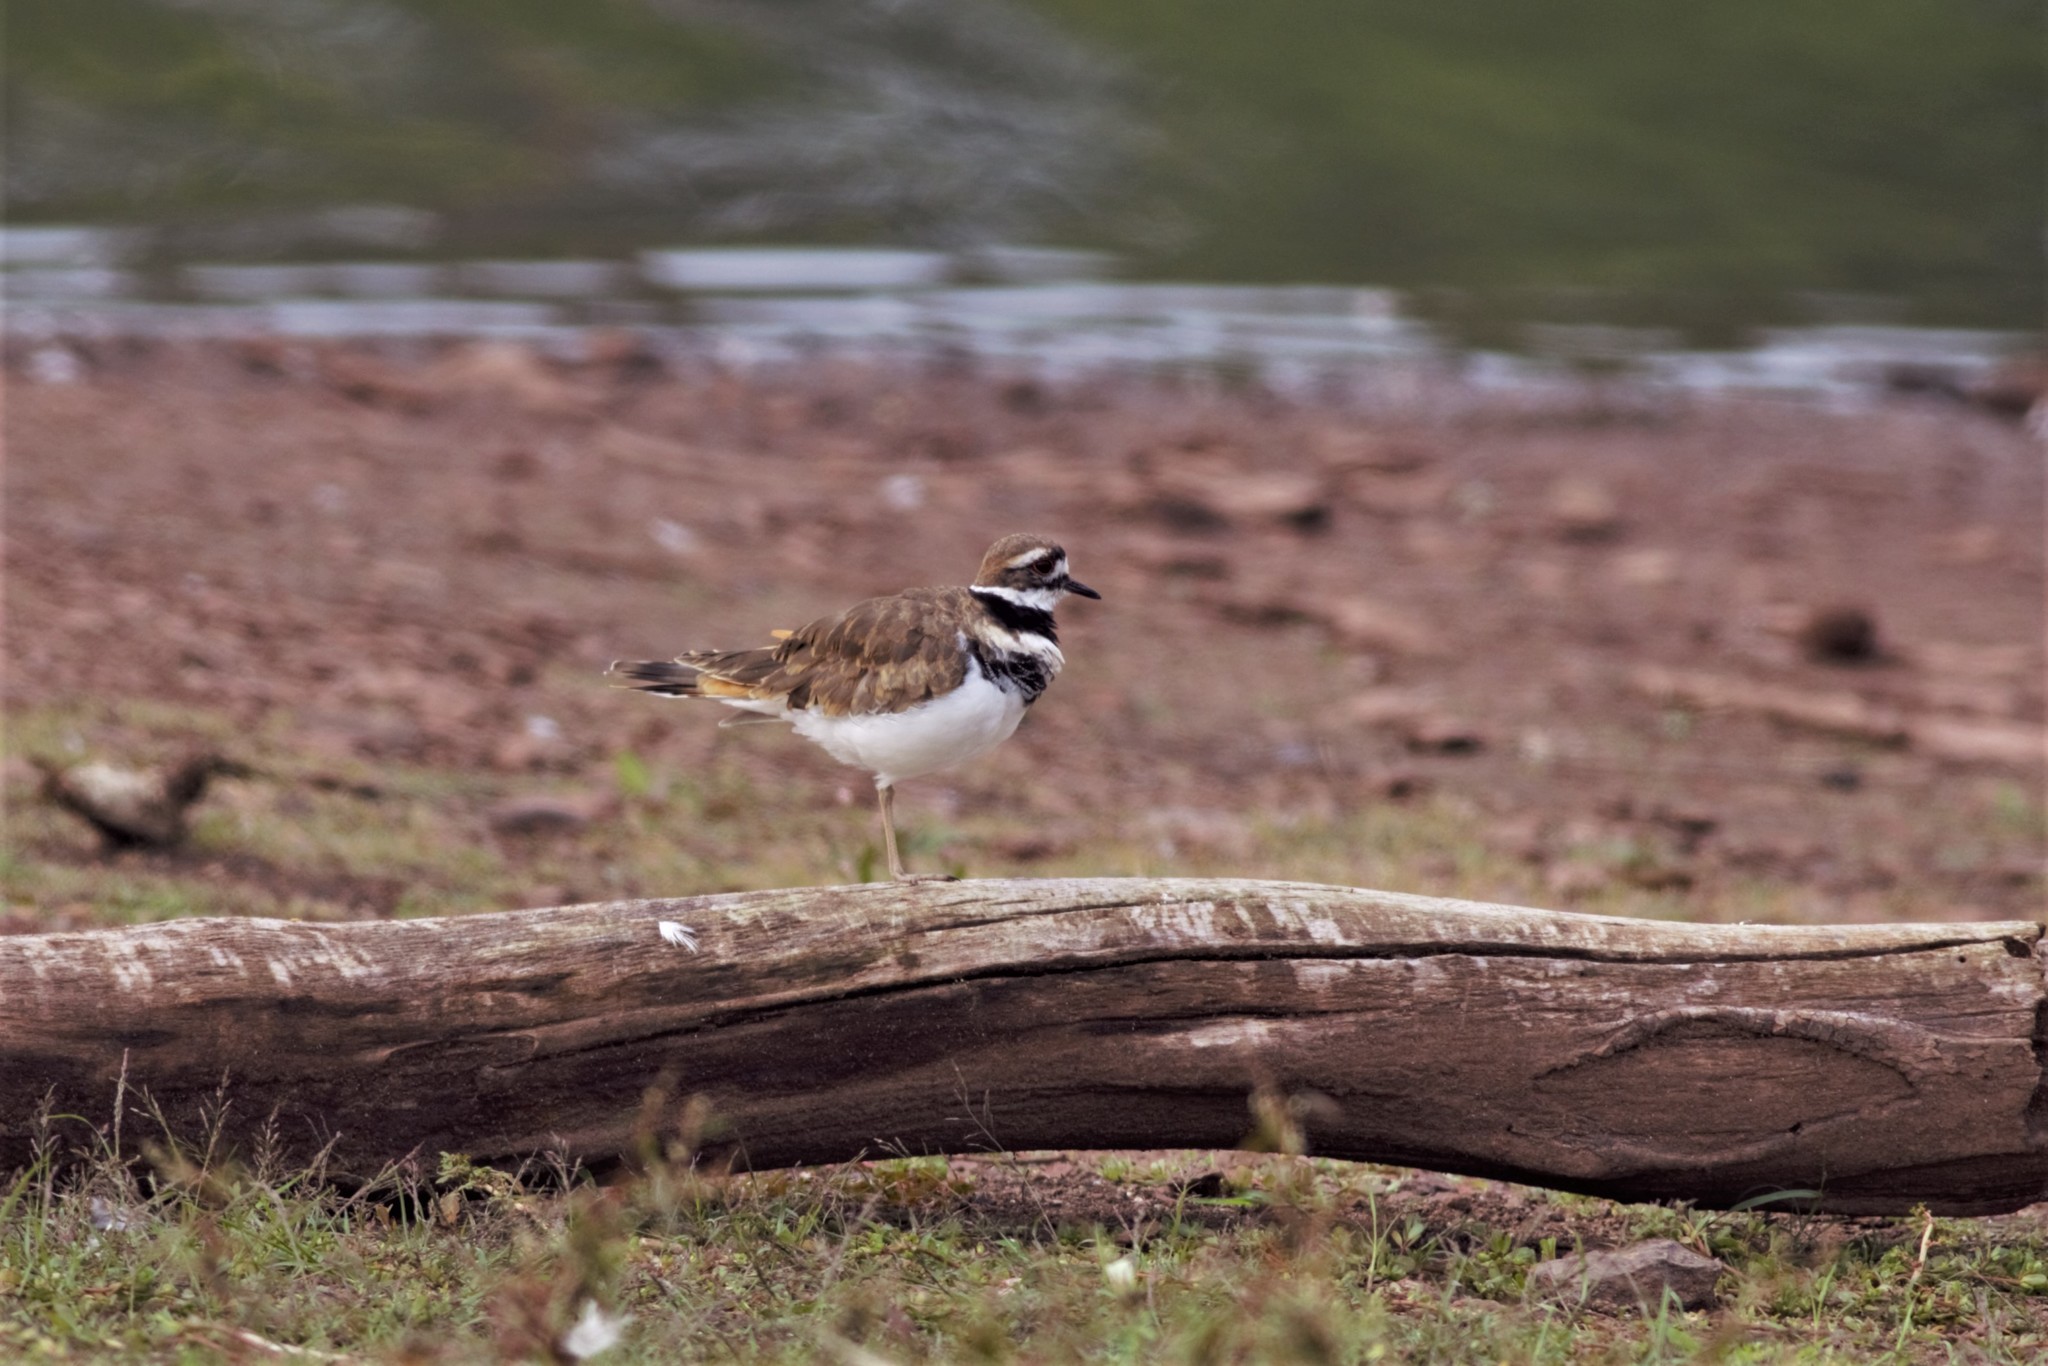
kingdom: Animalia
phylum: Chordata
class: Aves
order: Charadriiformes
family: Charadriidae
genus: Charadrius
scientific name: Charadrius vociferus
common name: Killdeer
